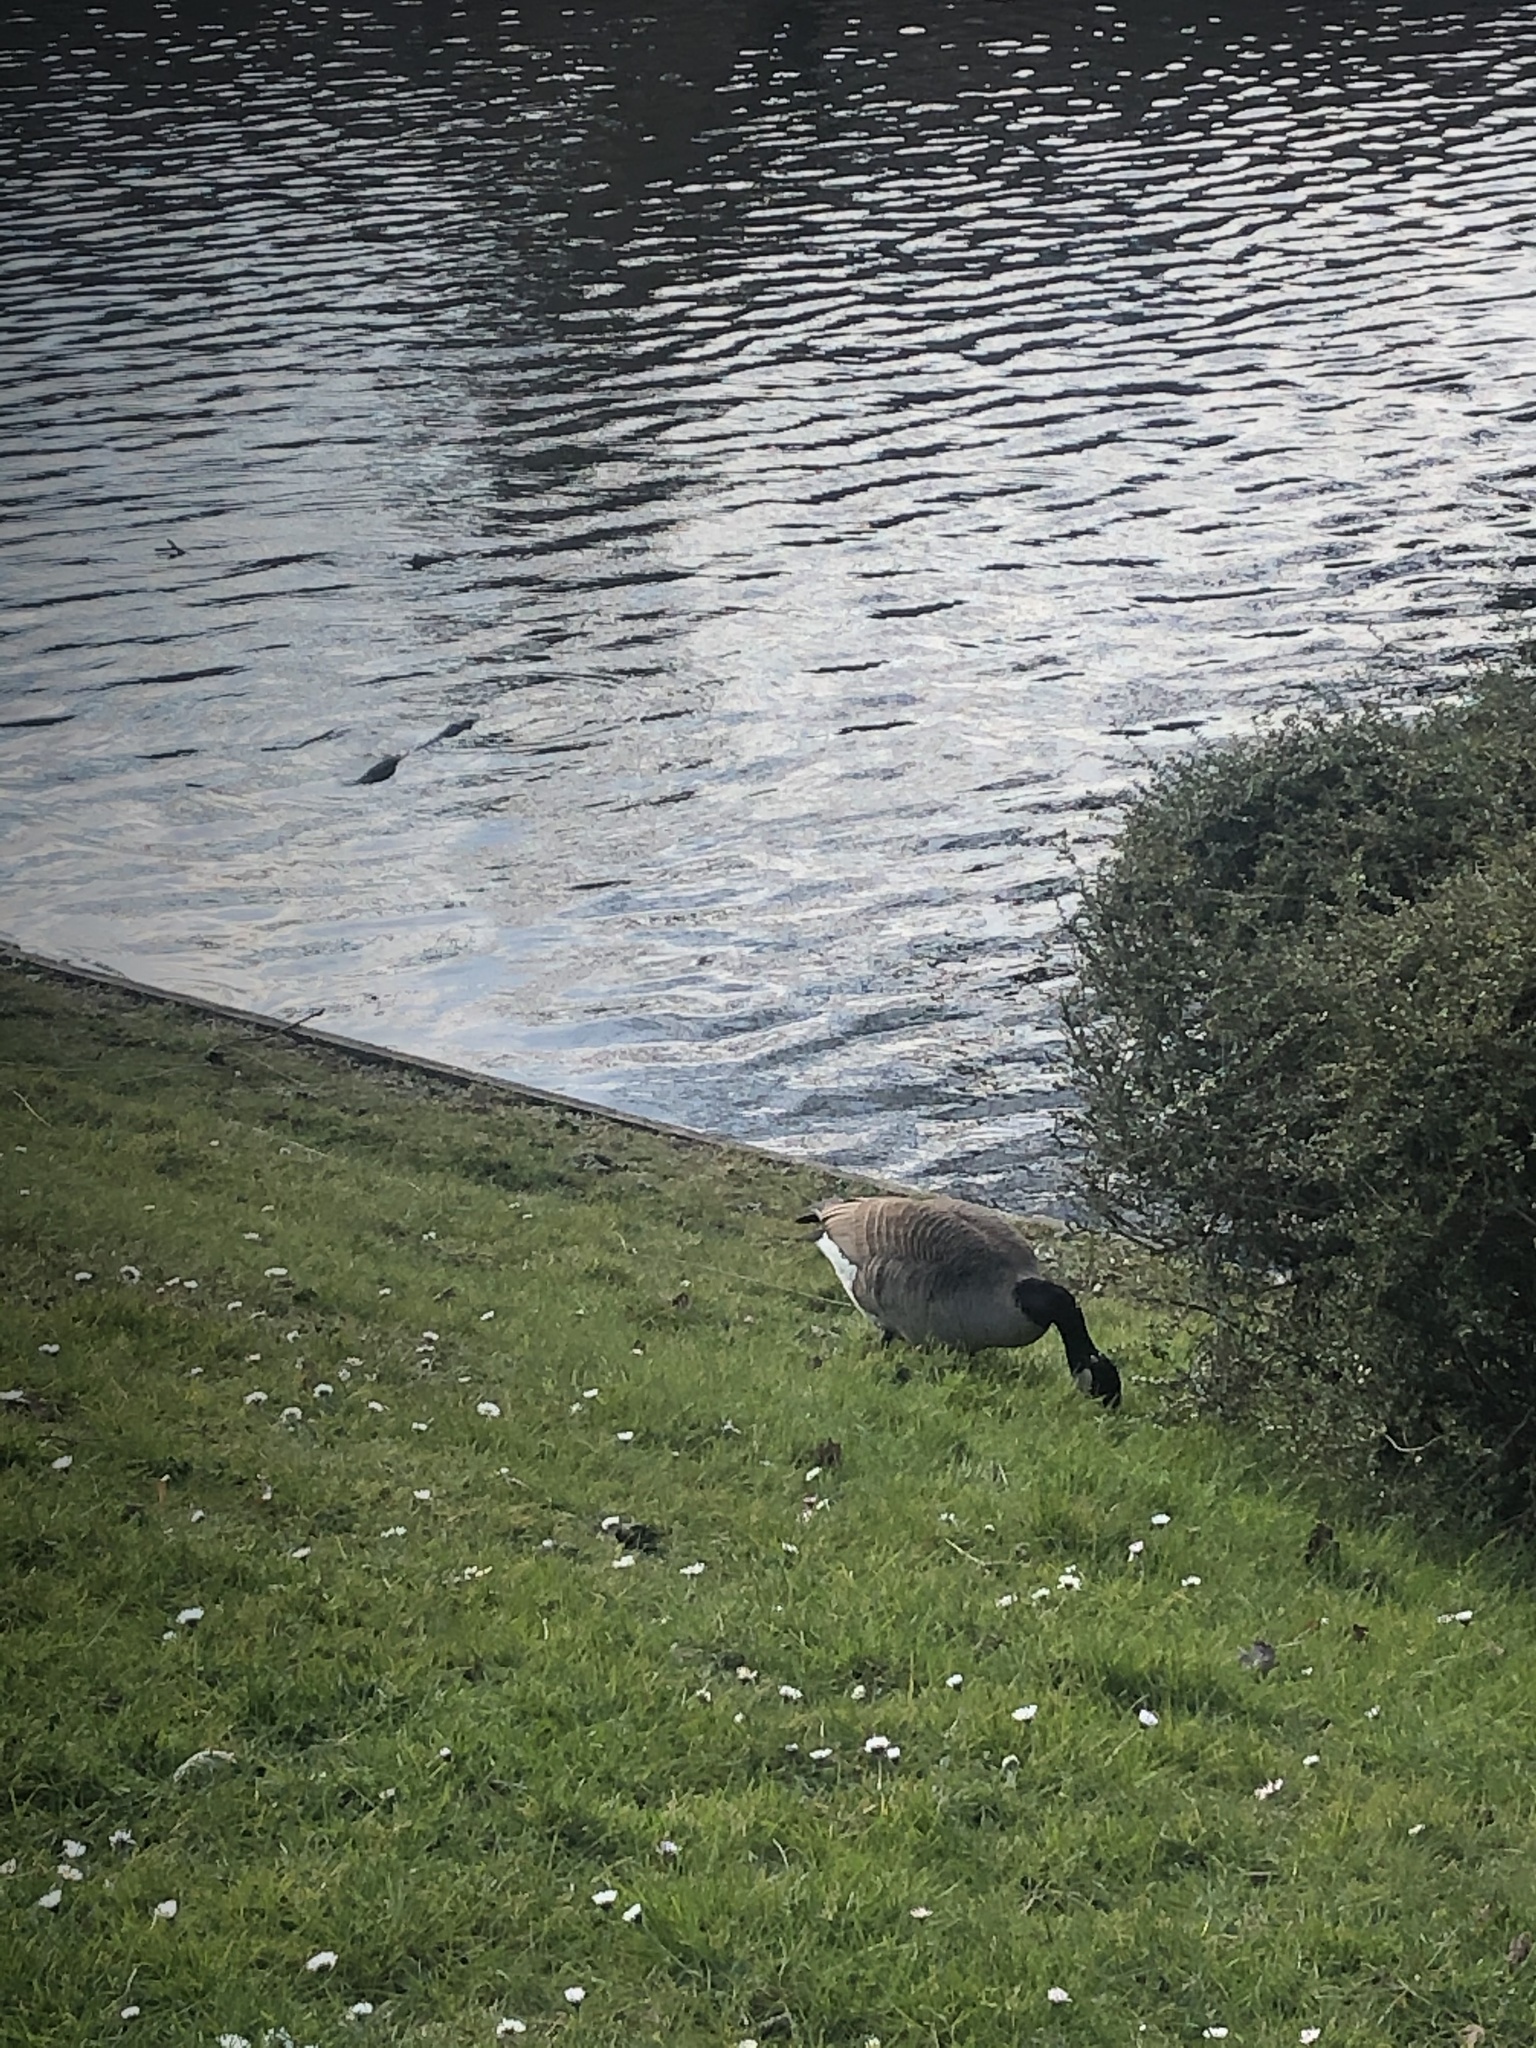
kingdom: Animalia
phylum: Chordata
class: Aves
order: Anseriformes
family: Anatidae
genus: Branta
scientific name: Branta canadensis
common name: Canada goose
